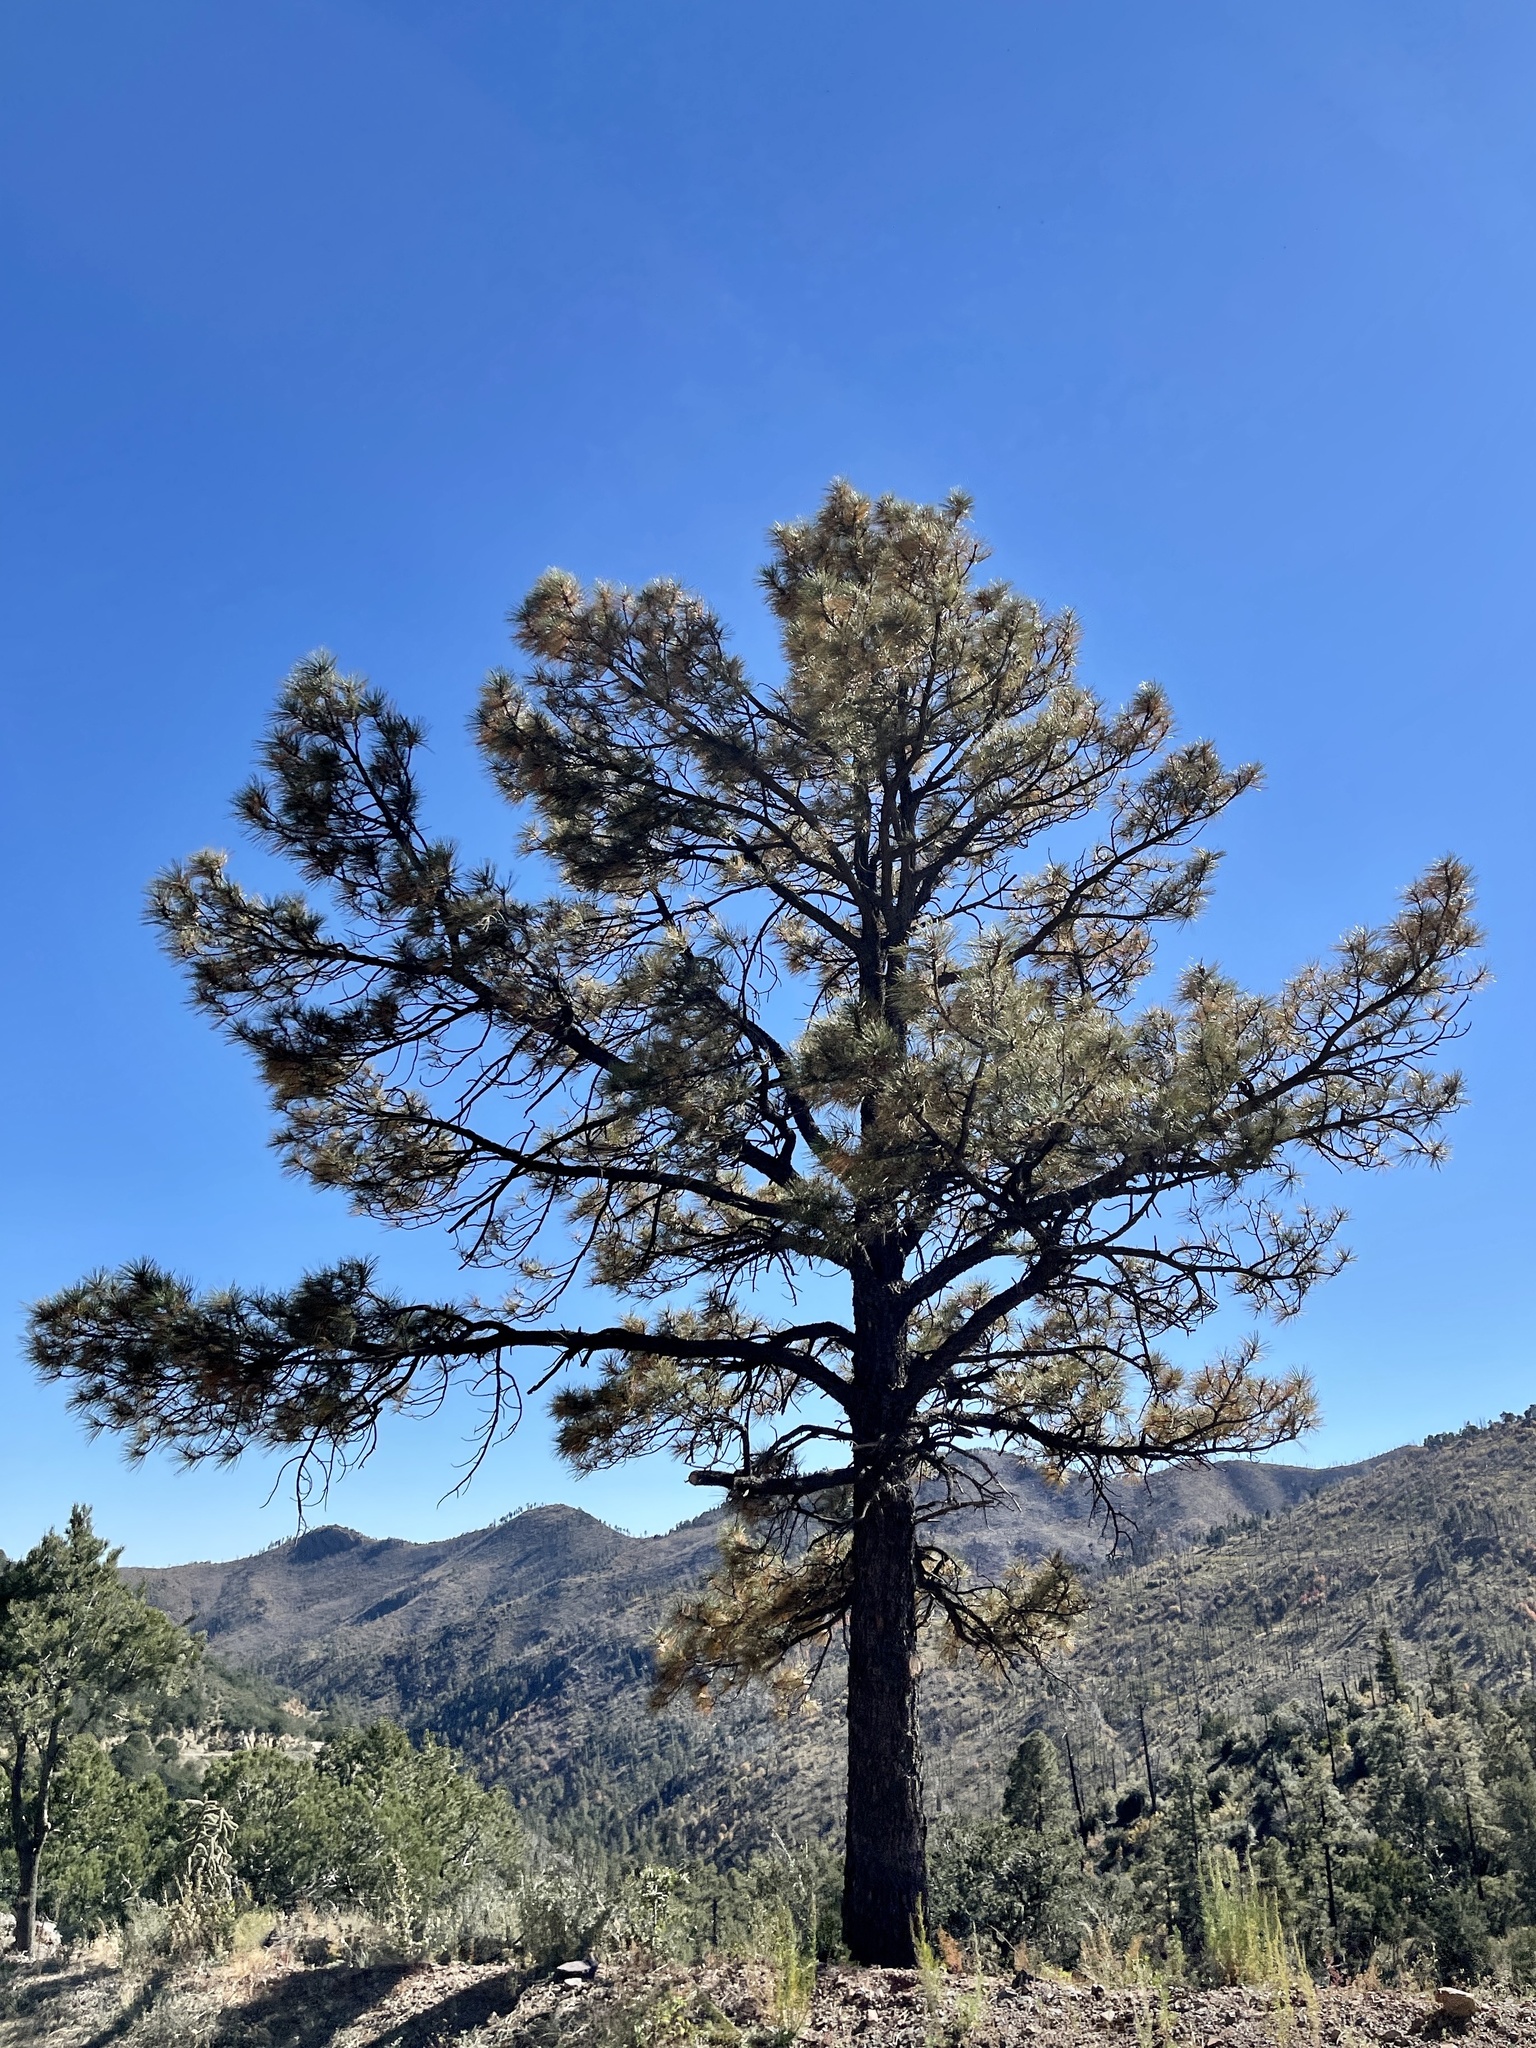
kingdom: Plantae
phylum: Tracheophyta
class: Pinopsida
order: Pinales
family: Pinaceae
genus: Pinus
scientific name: Pinus ponderosa
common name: Western yellow-pine
